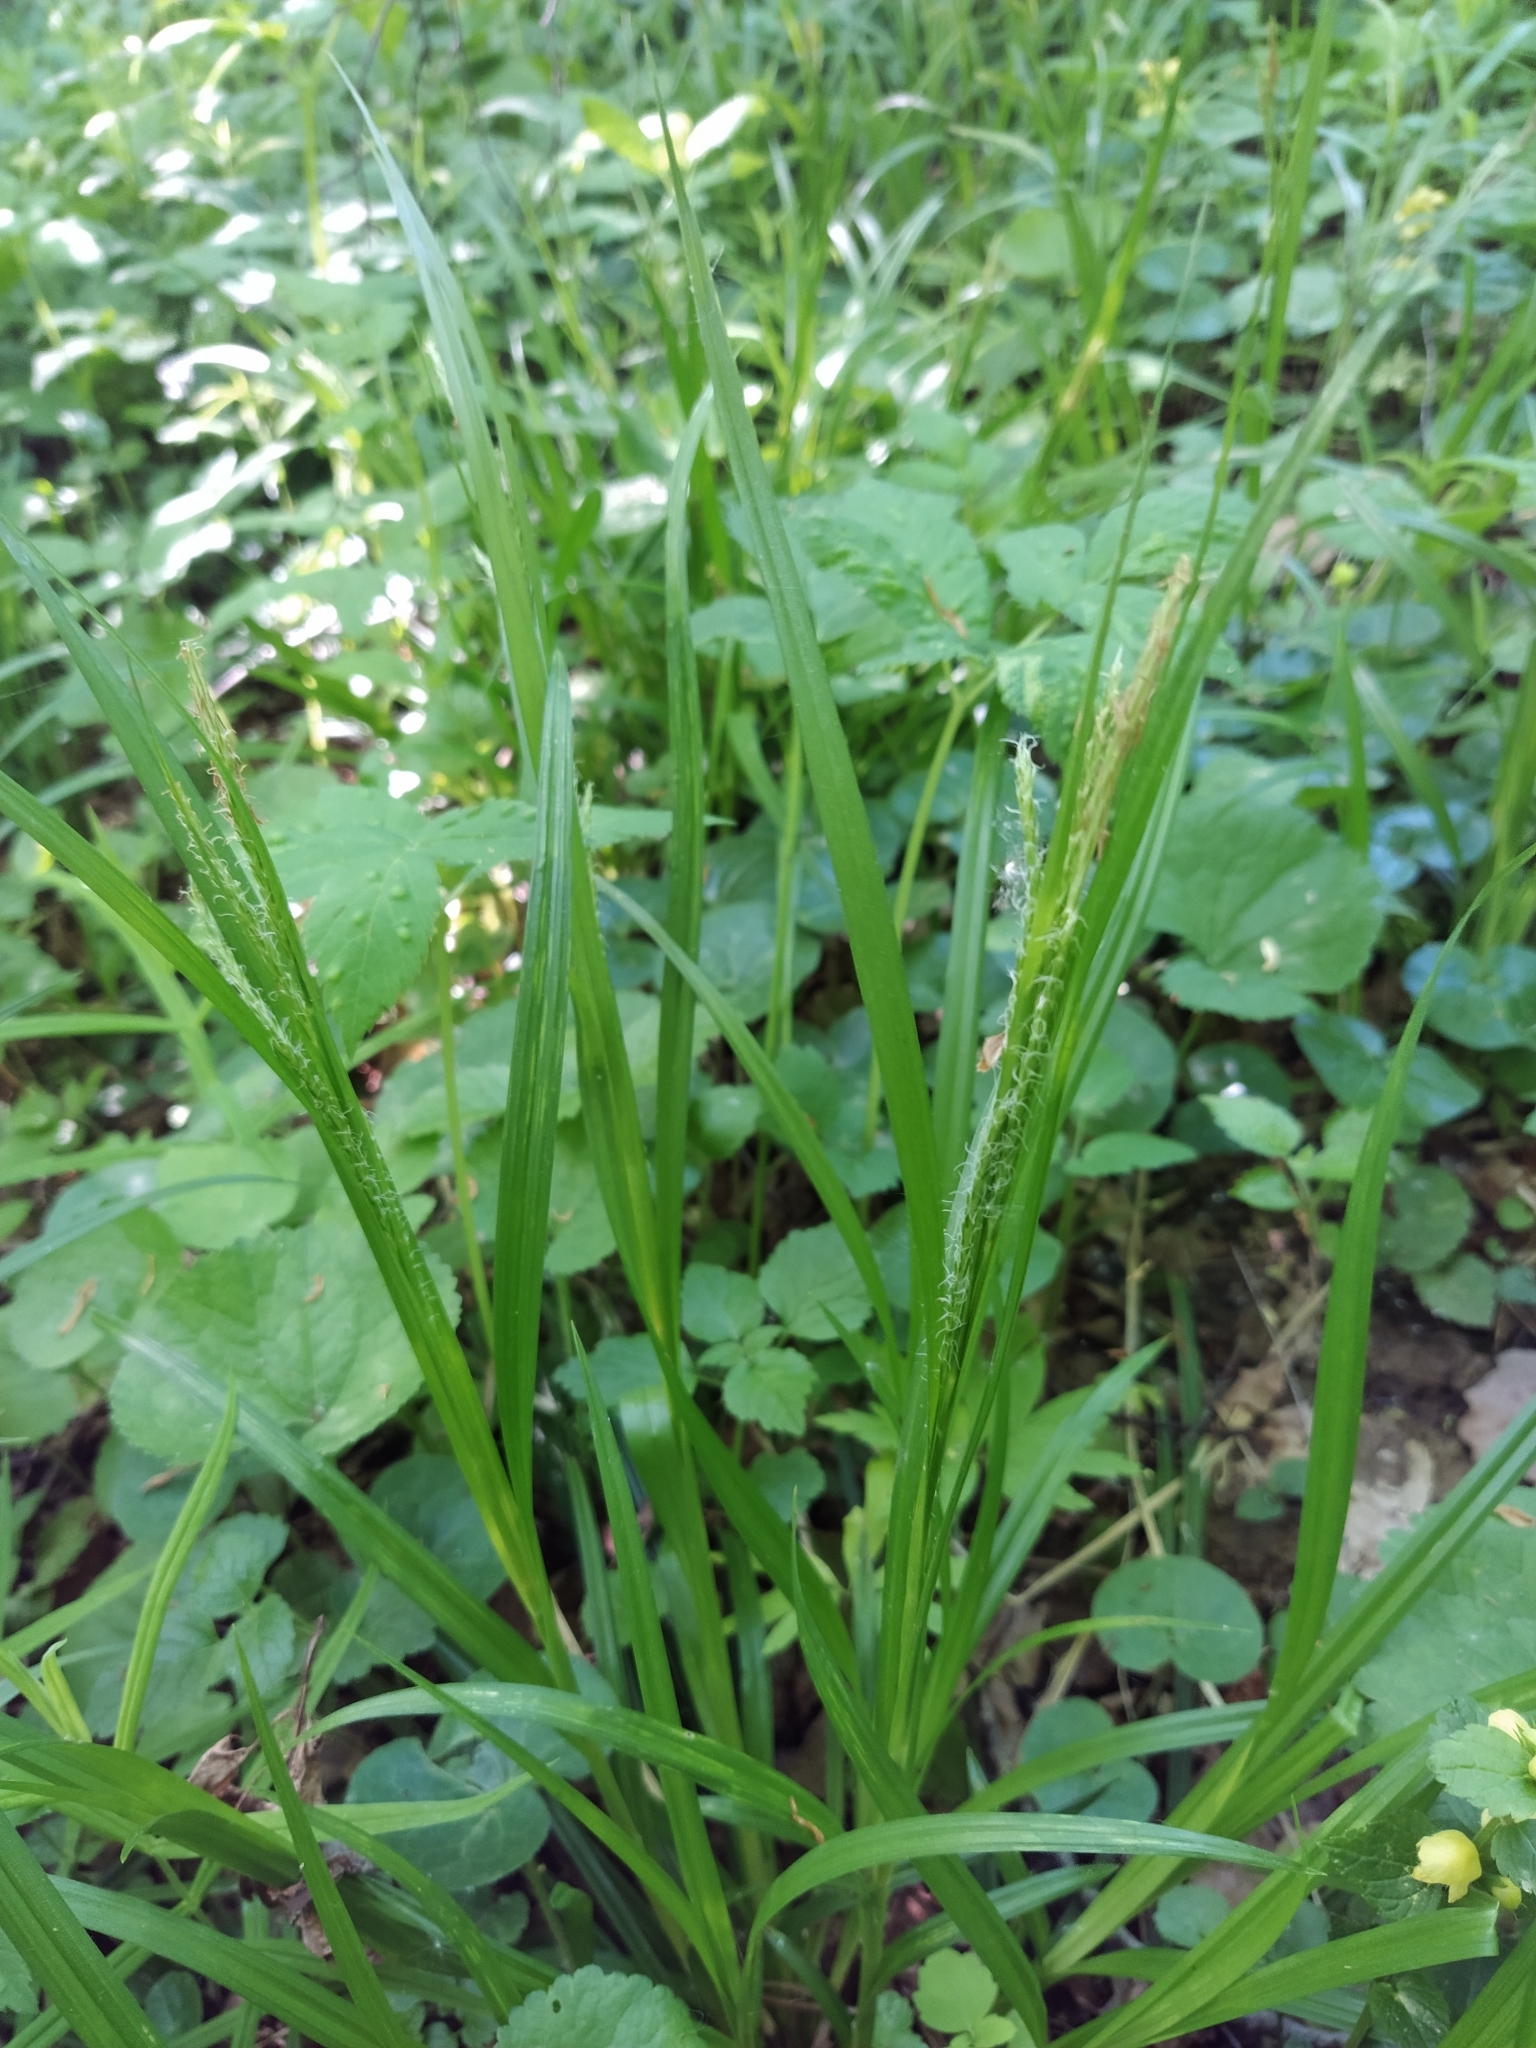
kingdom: Plantae
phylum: Tracheophyta
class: Liliopsida
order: Poales
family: Cyperaceae
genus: Carex
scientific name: Carex sylvatica
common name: Wood-sedge
